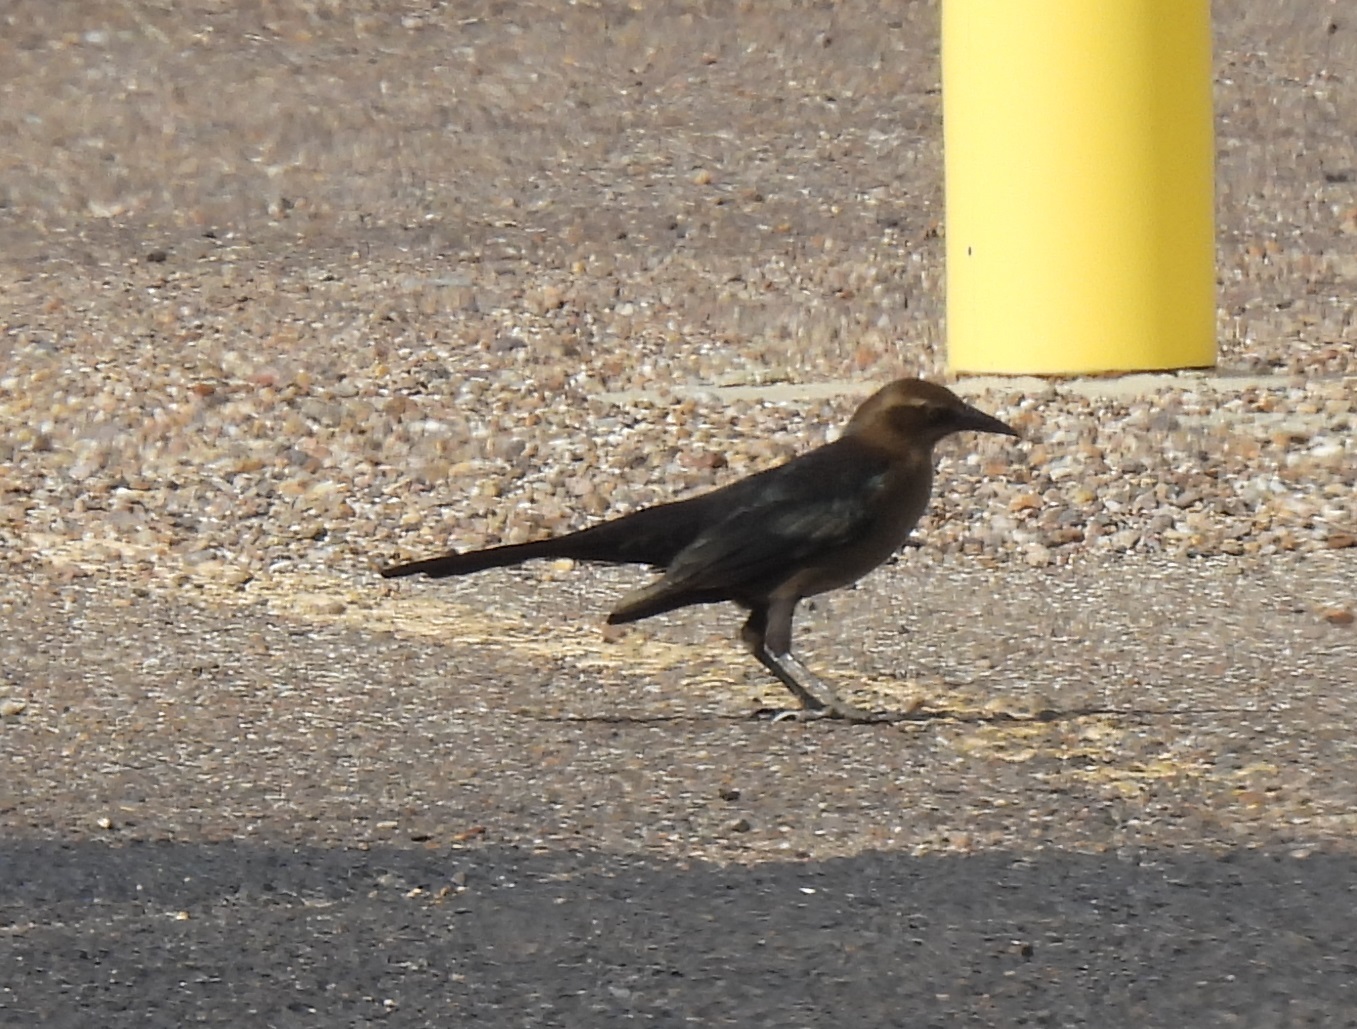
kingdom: Animalia
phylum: Chordata
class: Aves
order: Passeriformes
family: Icteridae
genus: Quiscalus
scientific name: Quiscalus mexicanus
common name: Great-tailed grackle
